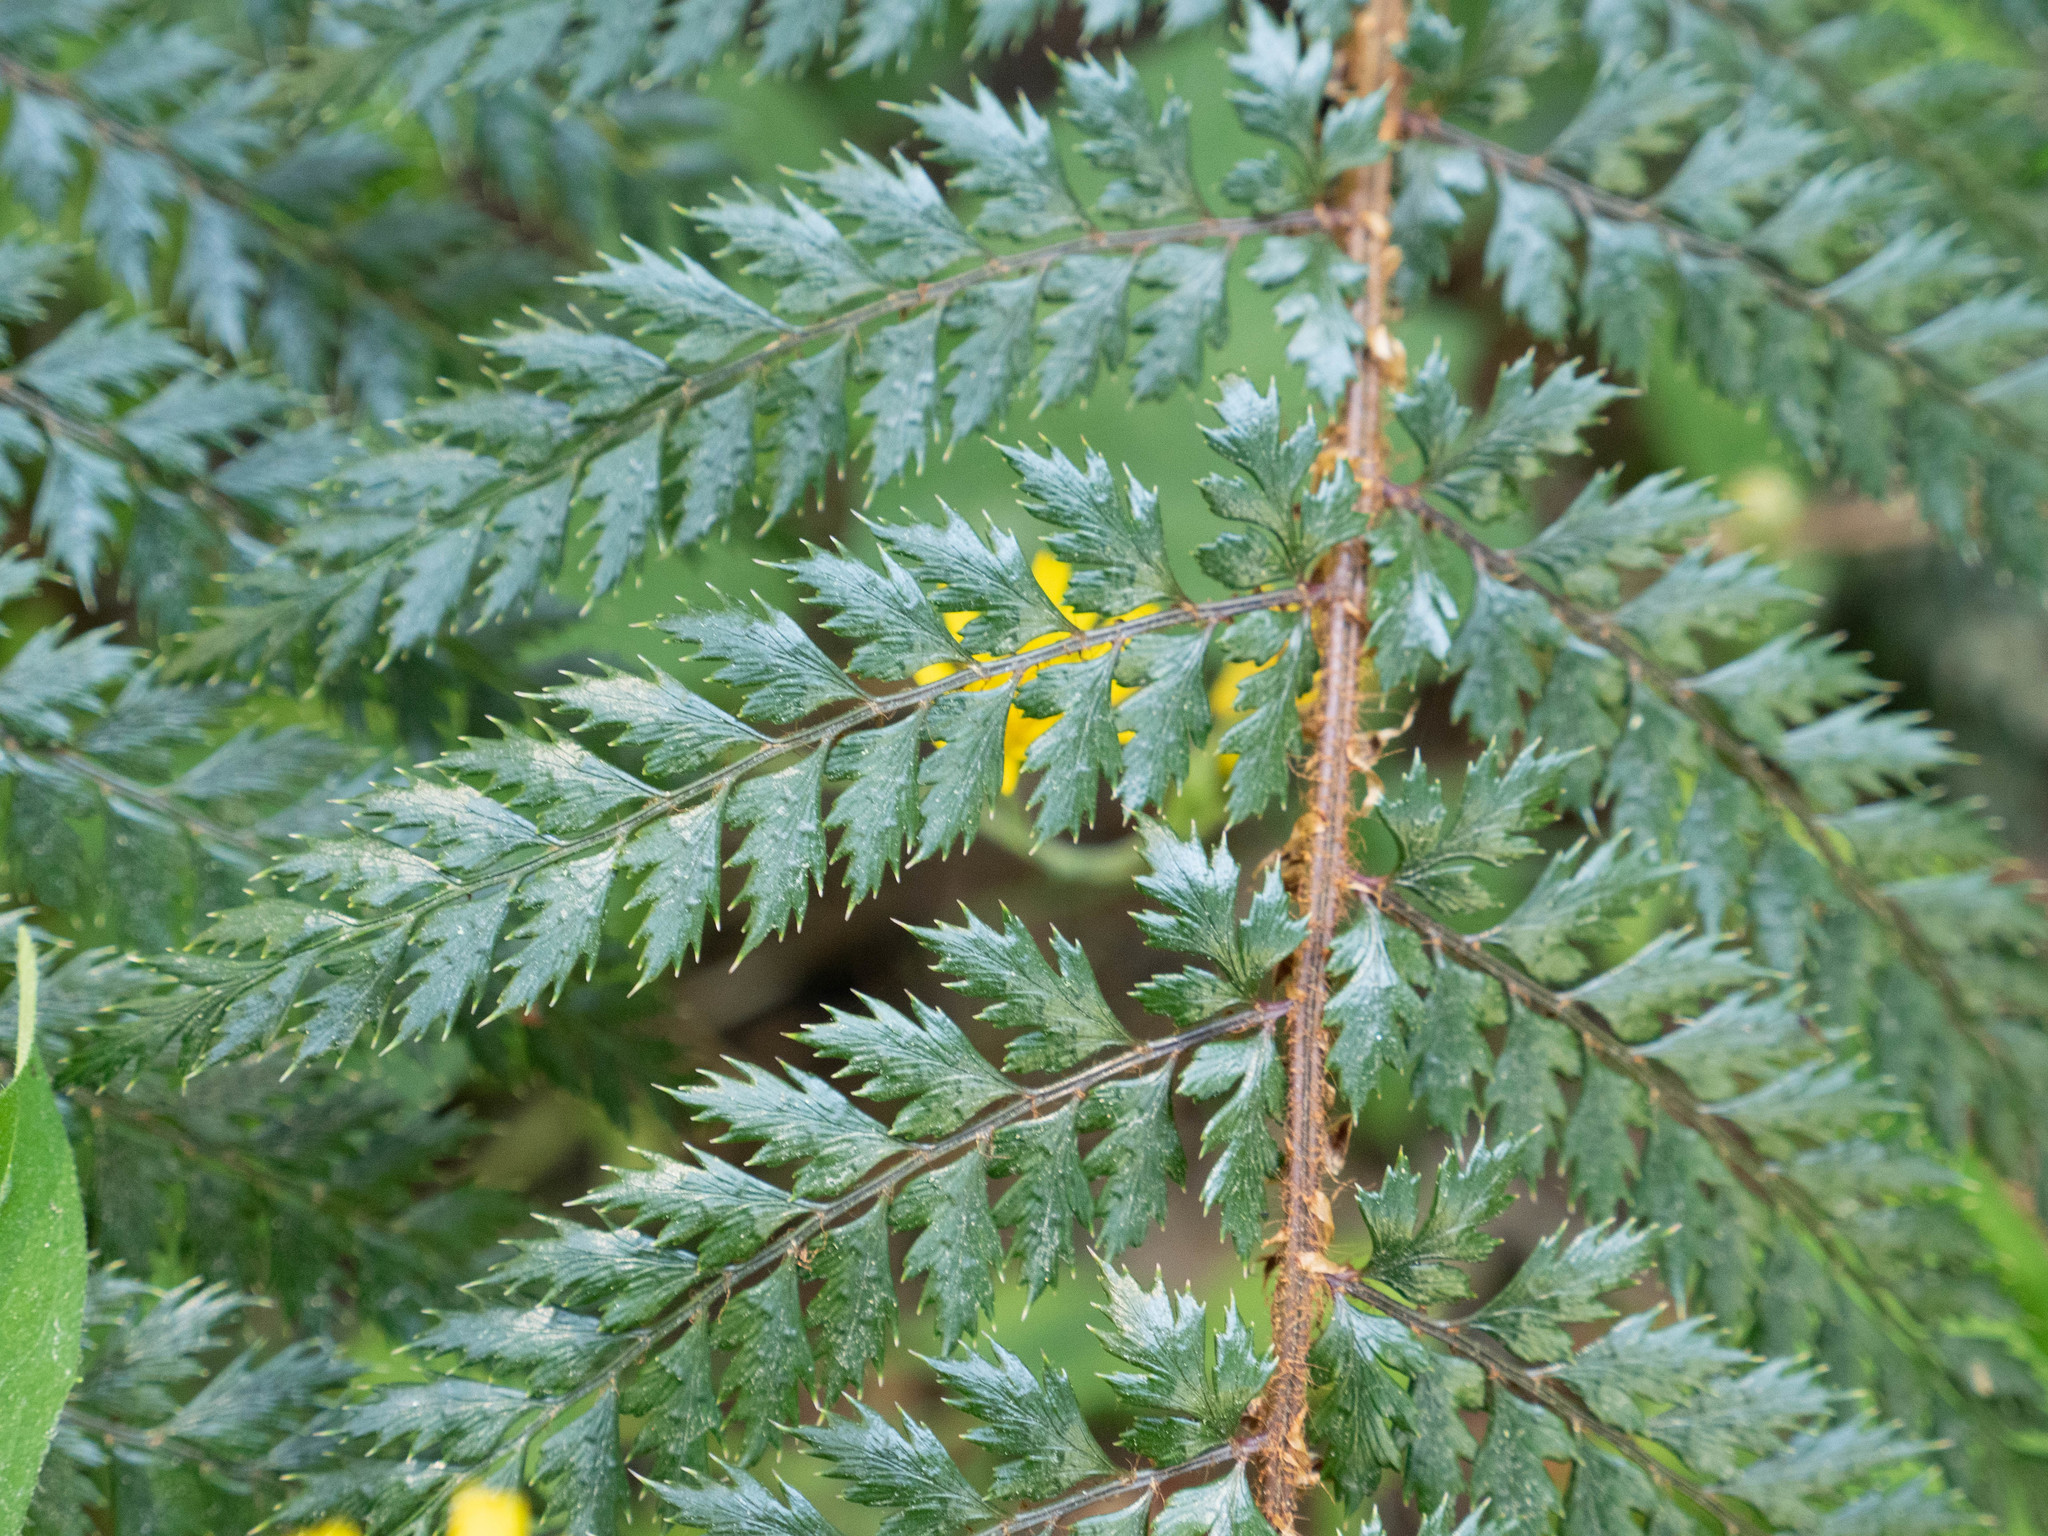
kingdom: Plantae
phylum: Tracheophyta
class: Polypodiopsida
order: Polypodiales
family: Dryopteridaceae
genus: Polystichum
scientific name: Polystichum vestitum
